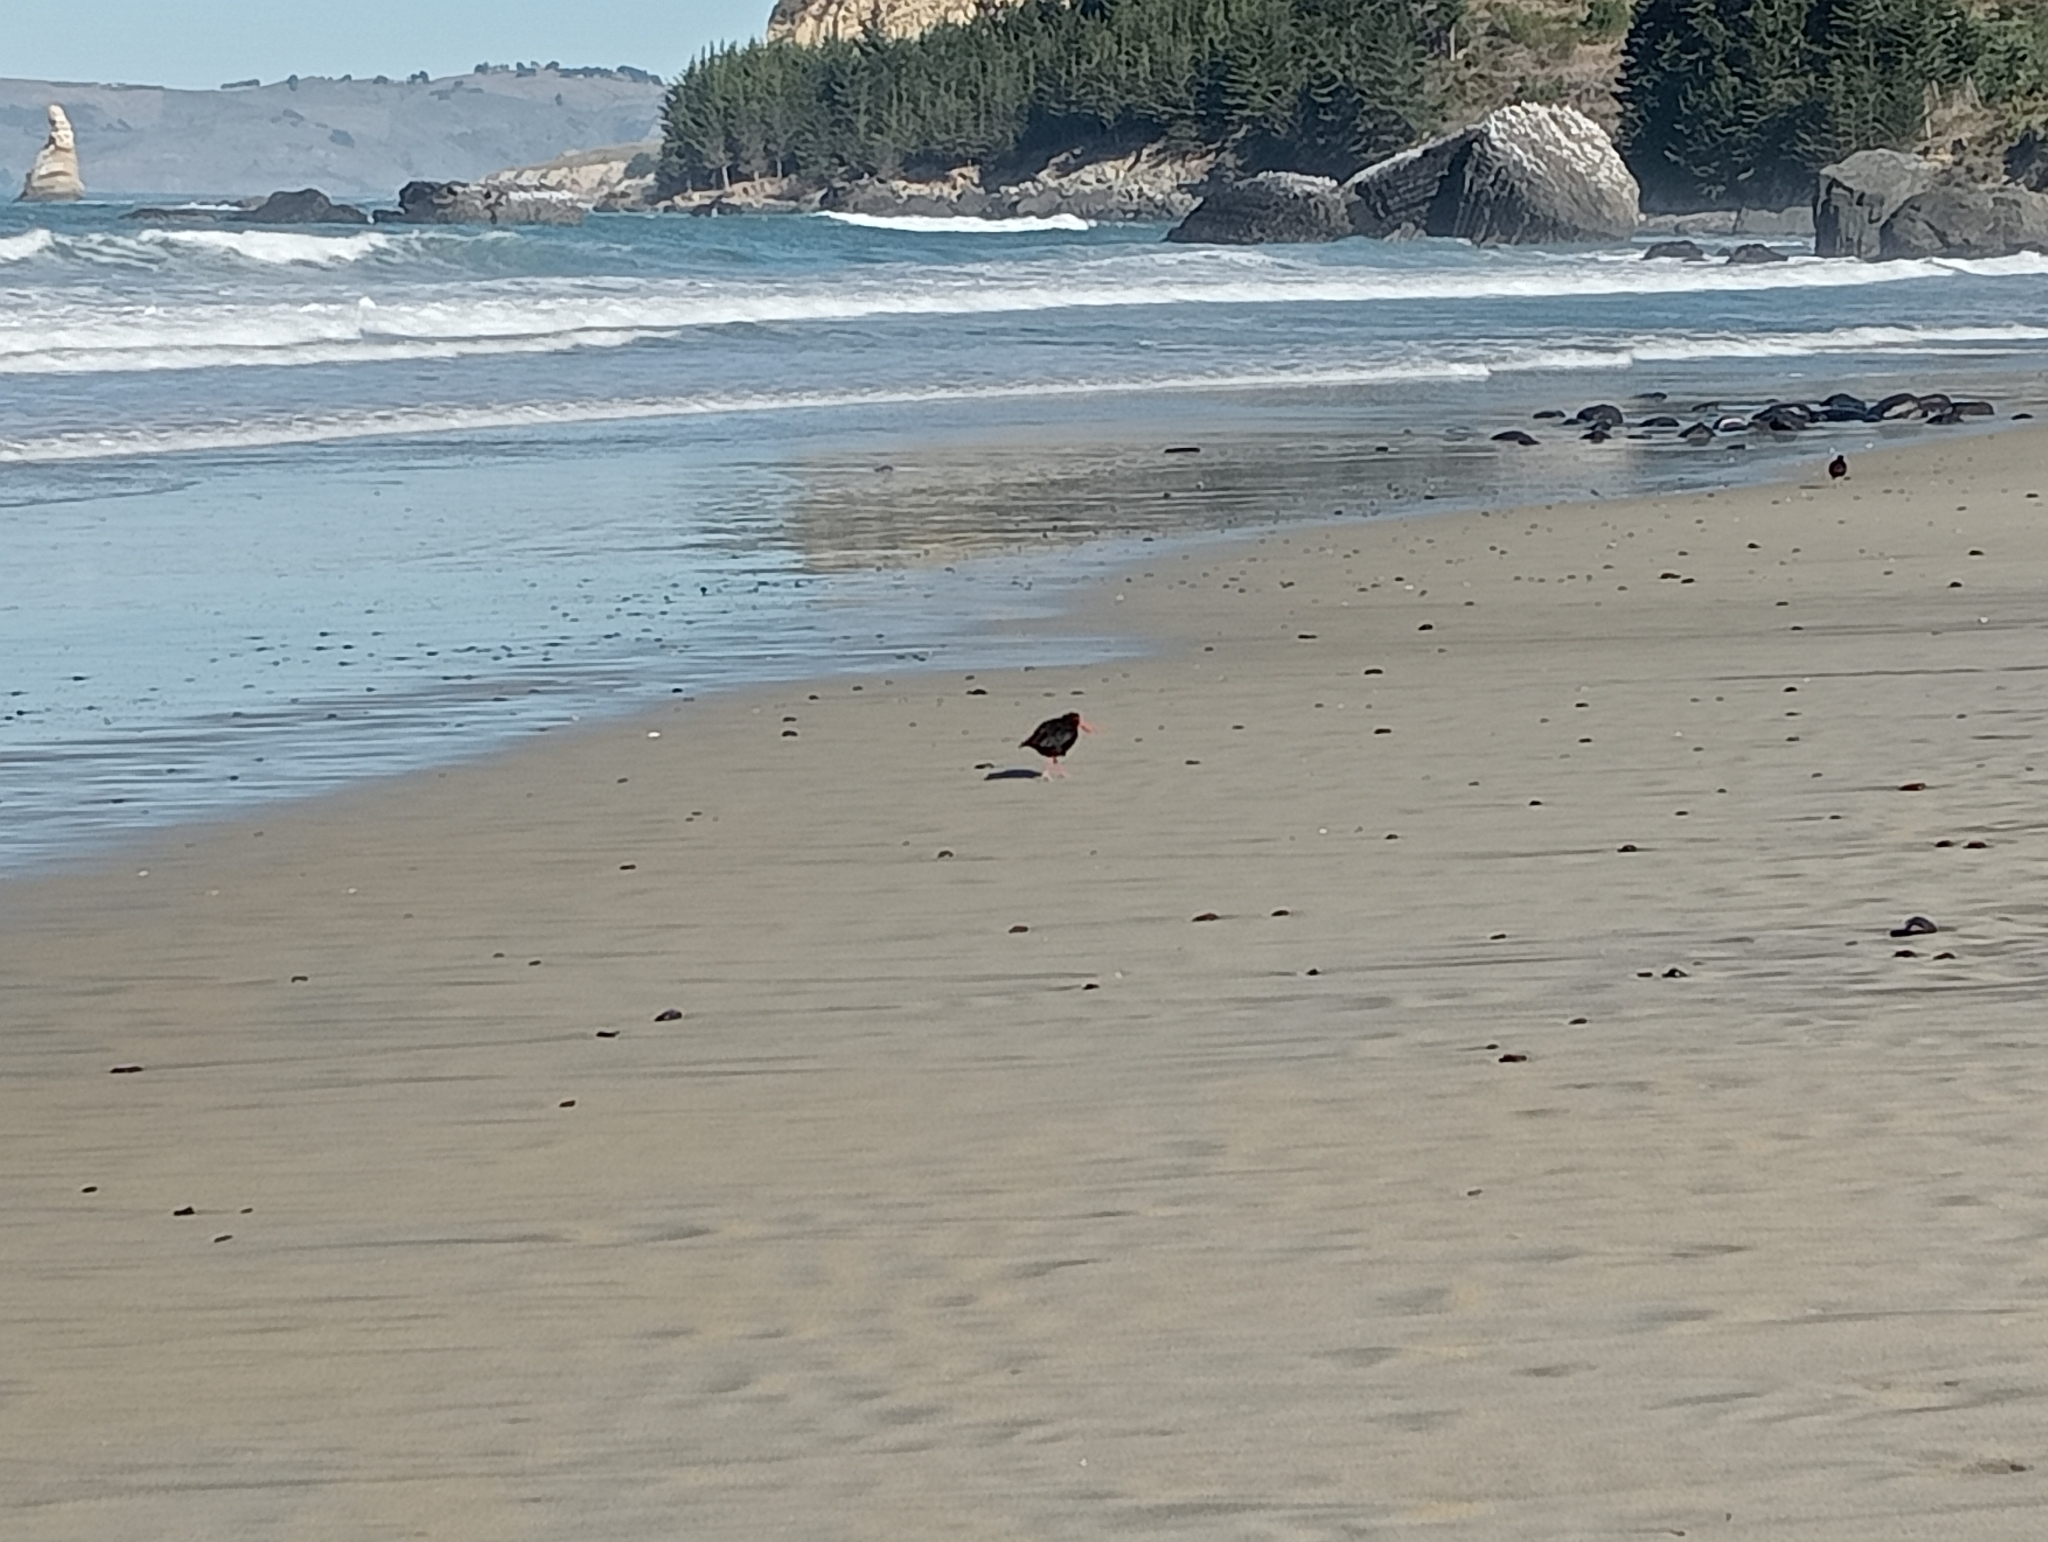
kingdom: Animalia
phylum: Chordata
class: Aves
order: Charadriiformes
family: Haematopodidae
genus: Haematopus
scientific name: Haematopus unicolor
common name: Variable oystercatcher
